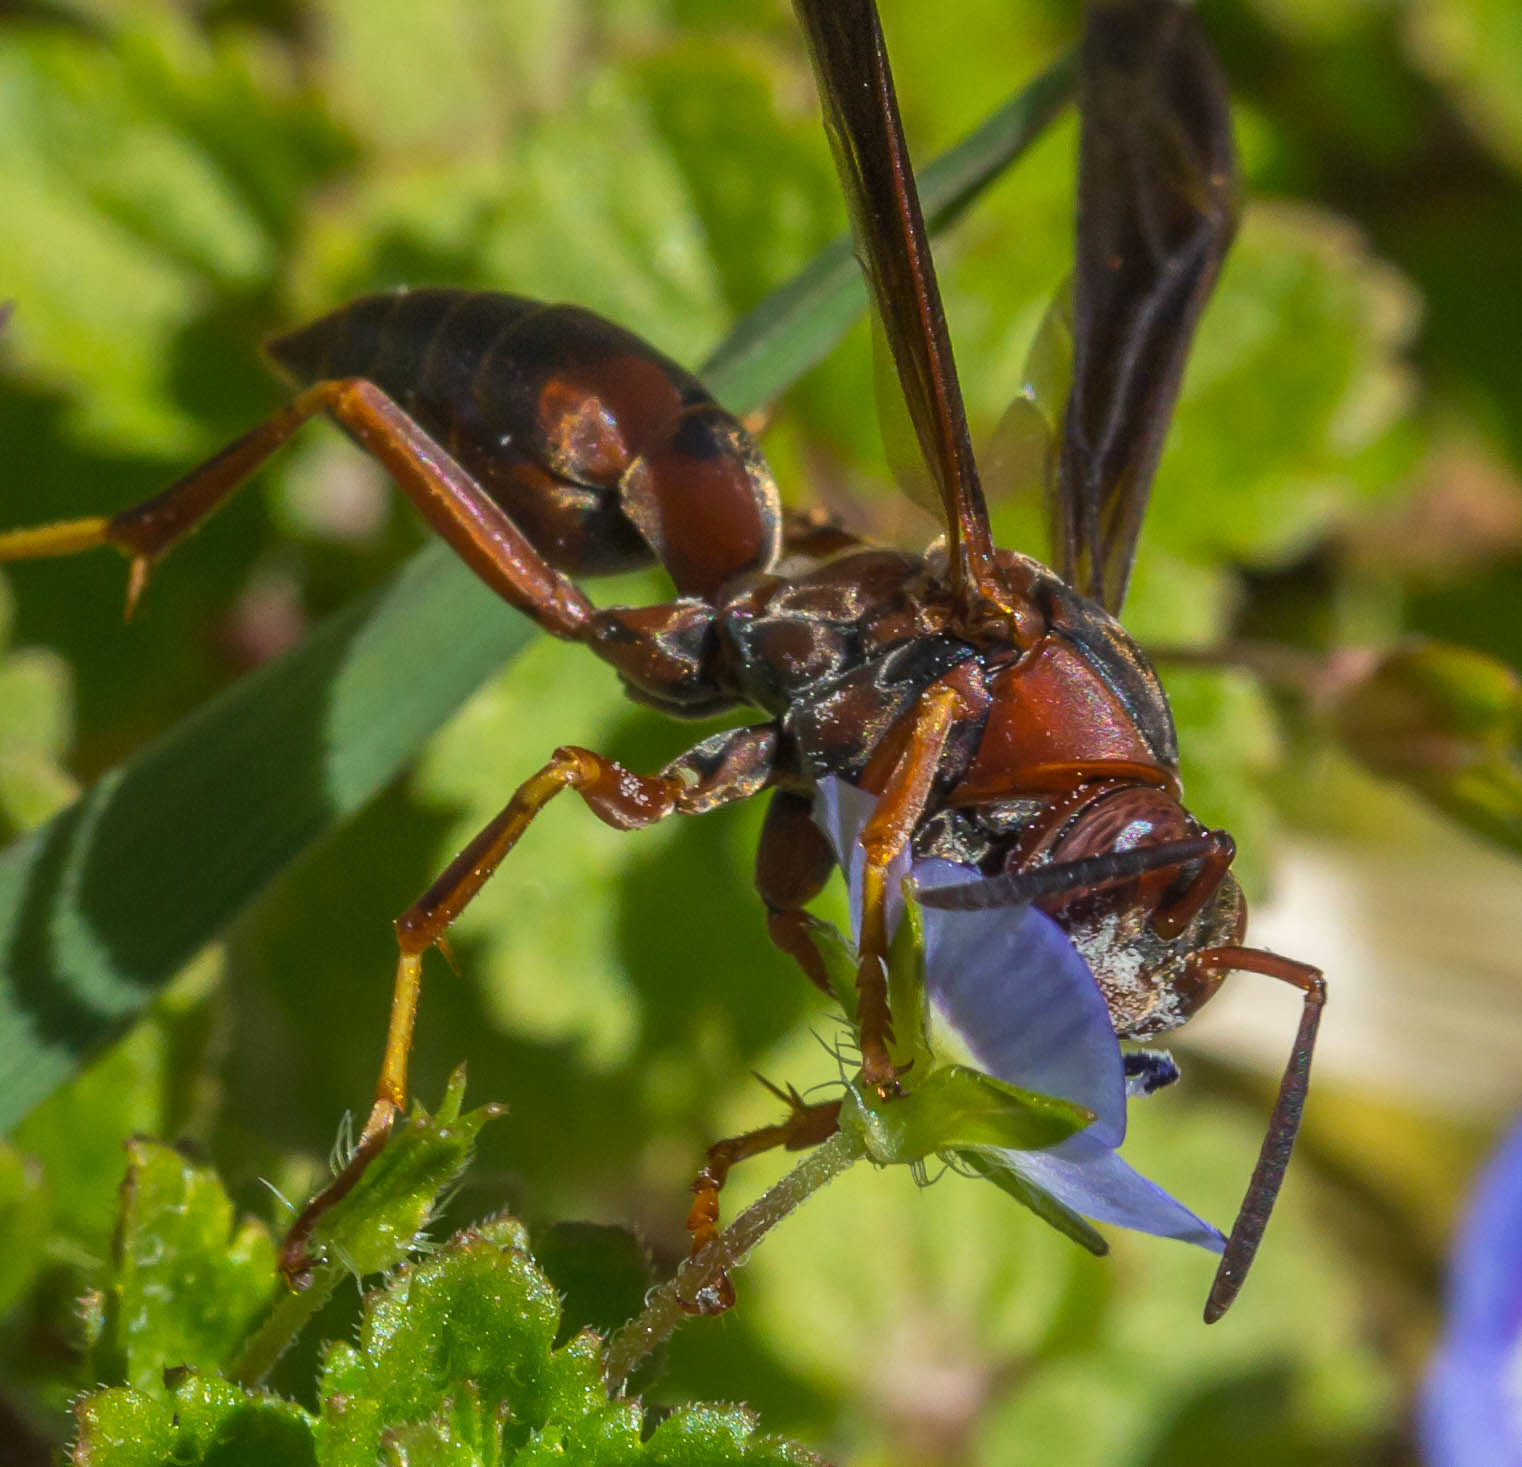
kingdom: Animalia
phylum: Arthropoda
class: Insecta
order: Hymenoptera
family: Eumenidae
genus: Polistes
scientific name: Polistes metricus
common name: Metric paper wasp
